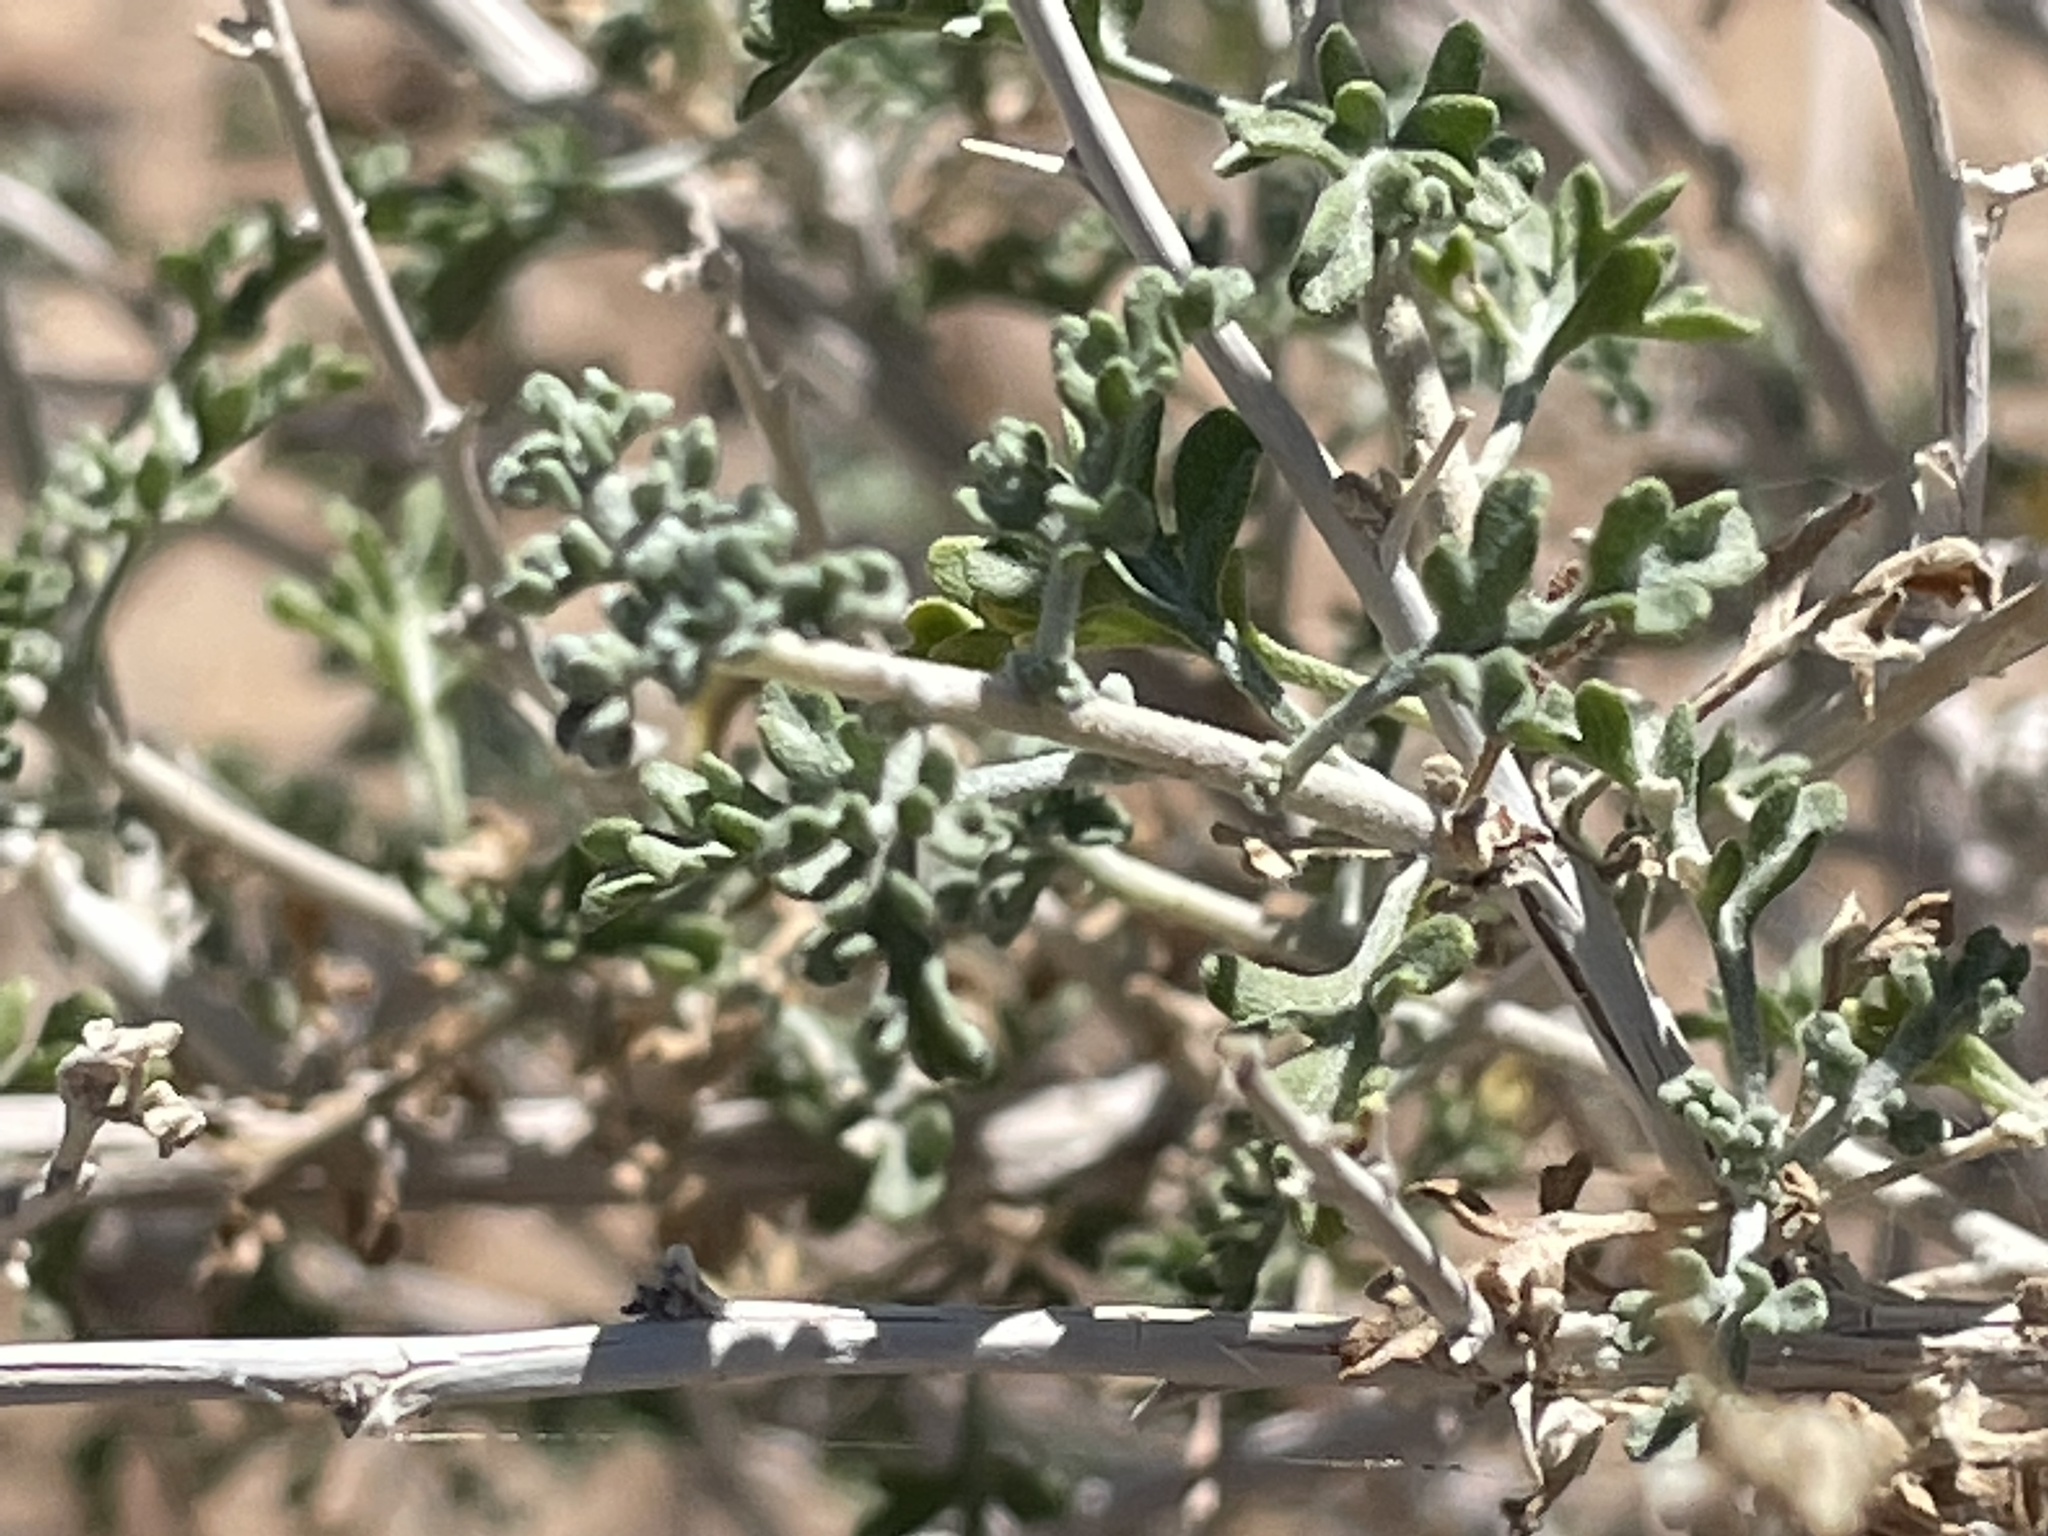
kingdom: Plantae
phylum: Tracheophyta
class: Magnoliopsida
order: Asterales
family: Asteraceae
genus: Ambrosia
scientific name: Ambrosia dumosa
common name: Bur-sage
